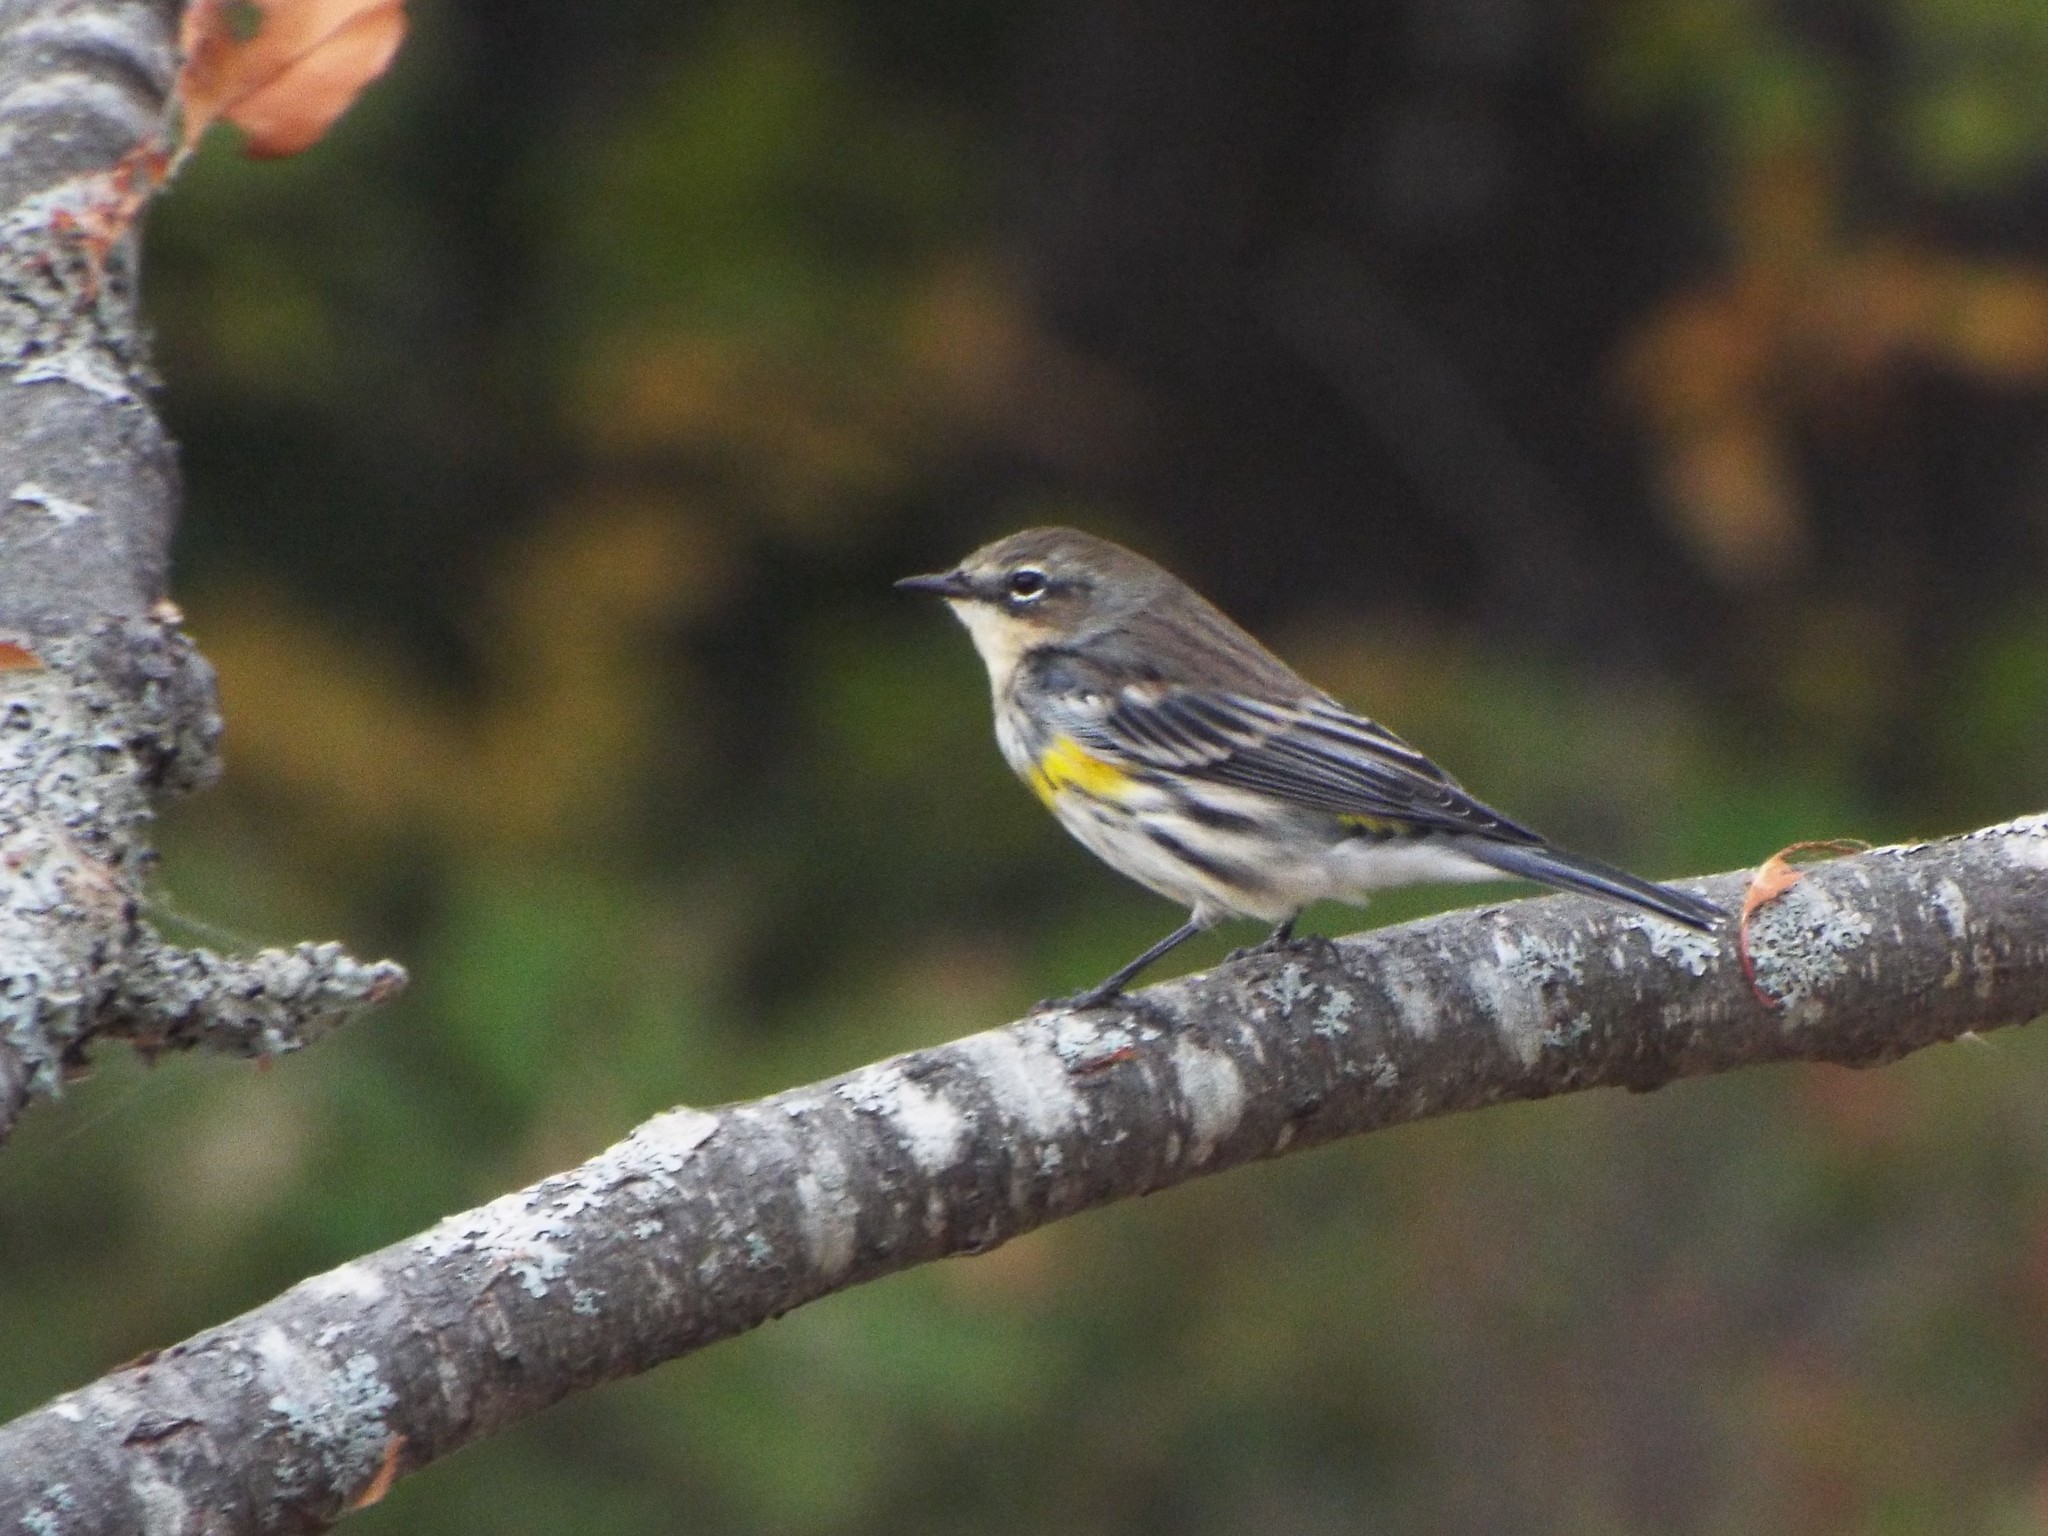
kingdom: Animalia
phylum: Chordata
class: Aves
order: Passeriformes
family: Parulidae
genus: Setophaga
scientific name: Setophaga coronata
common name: Myrtle warbler
